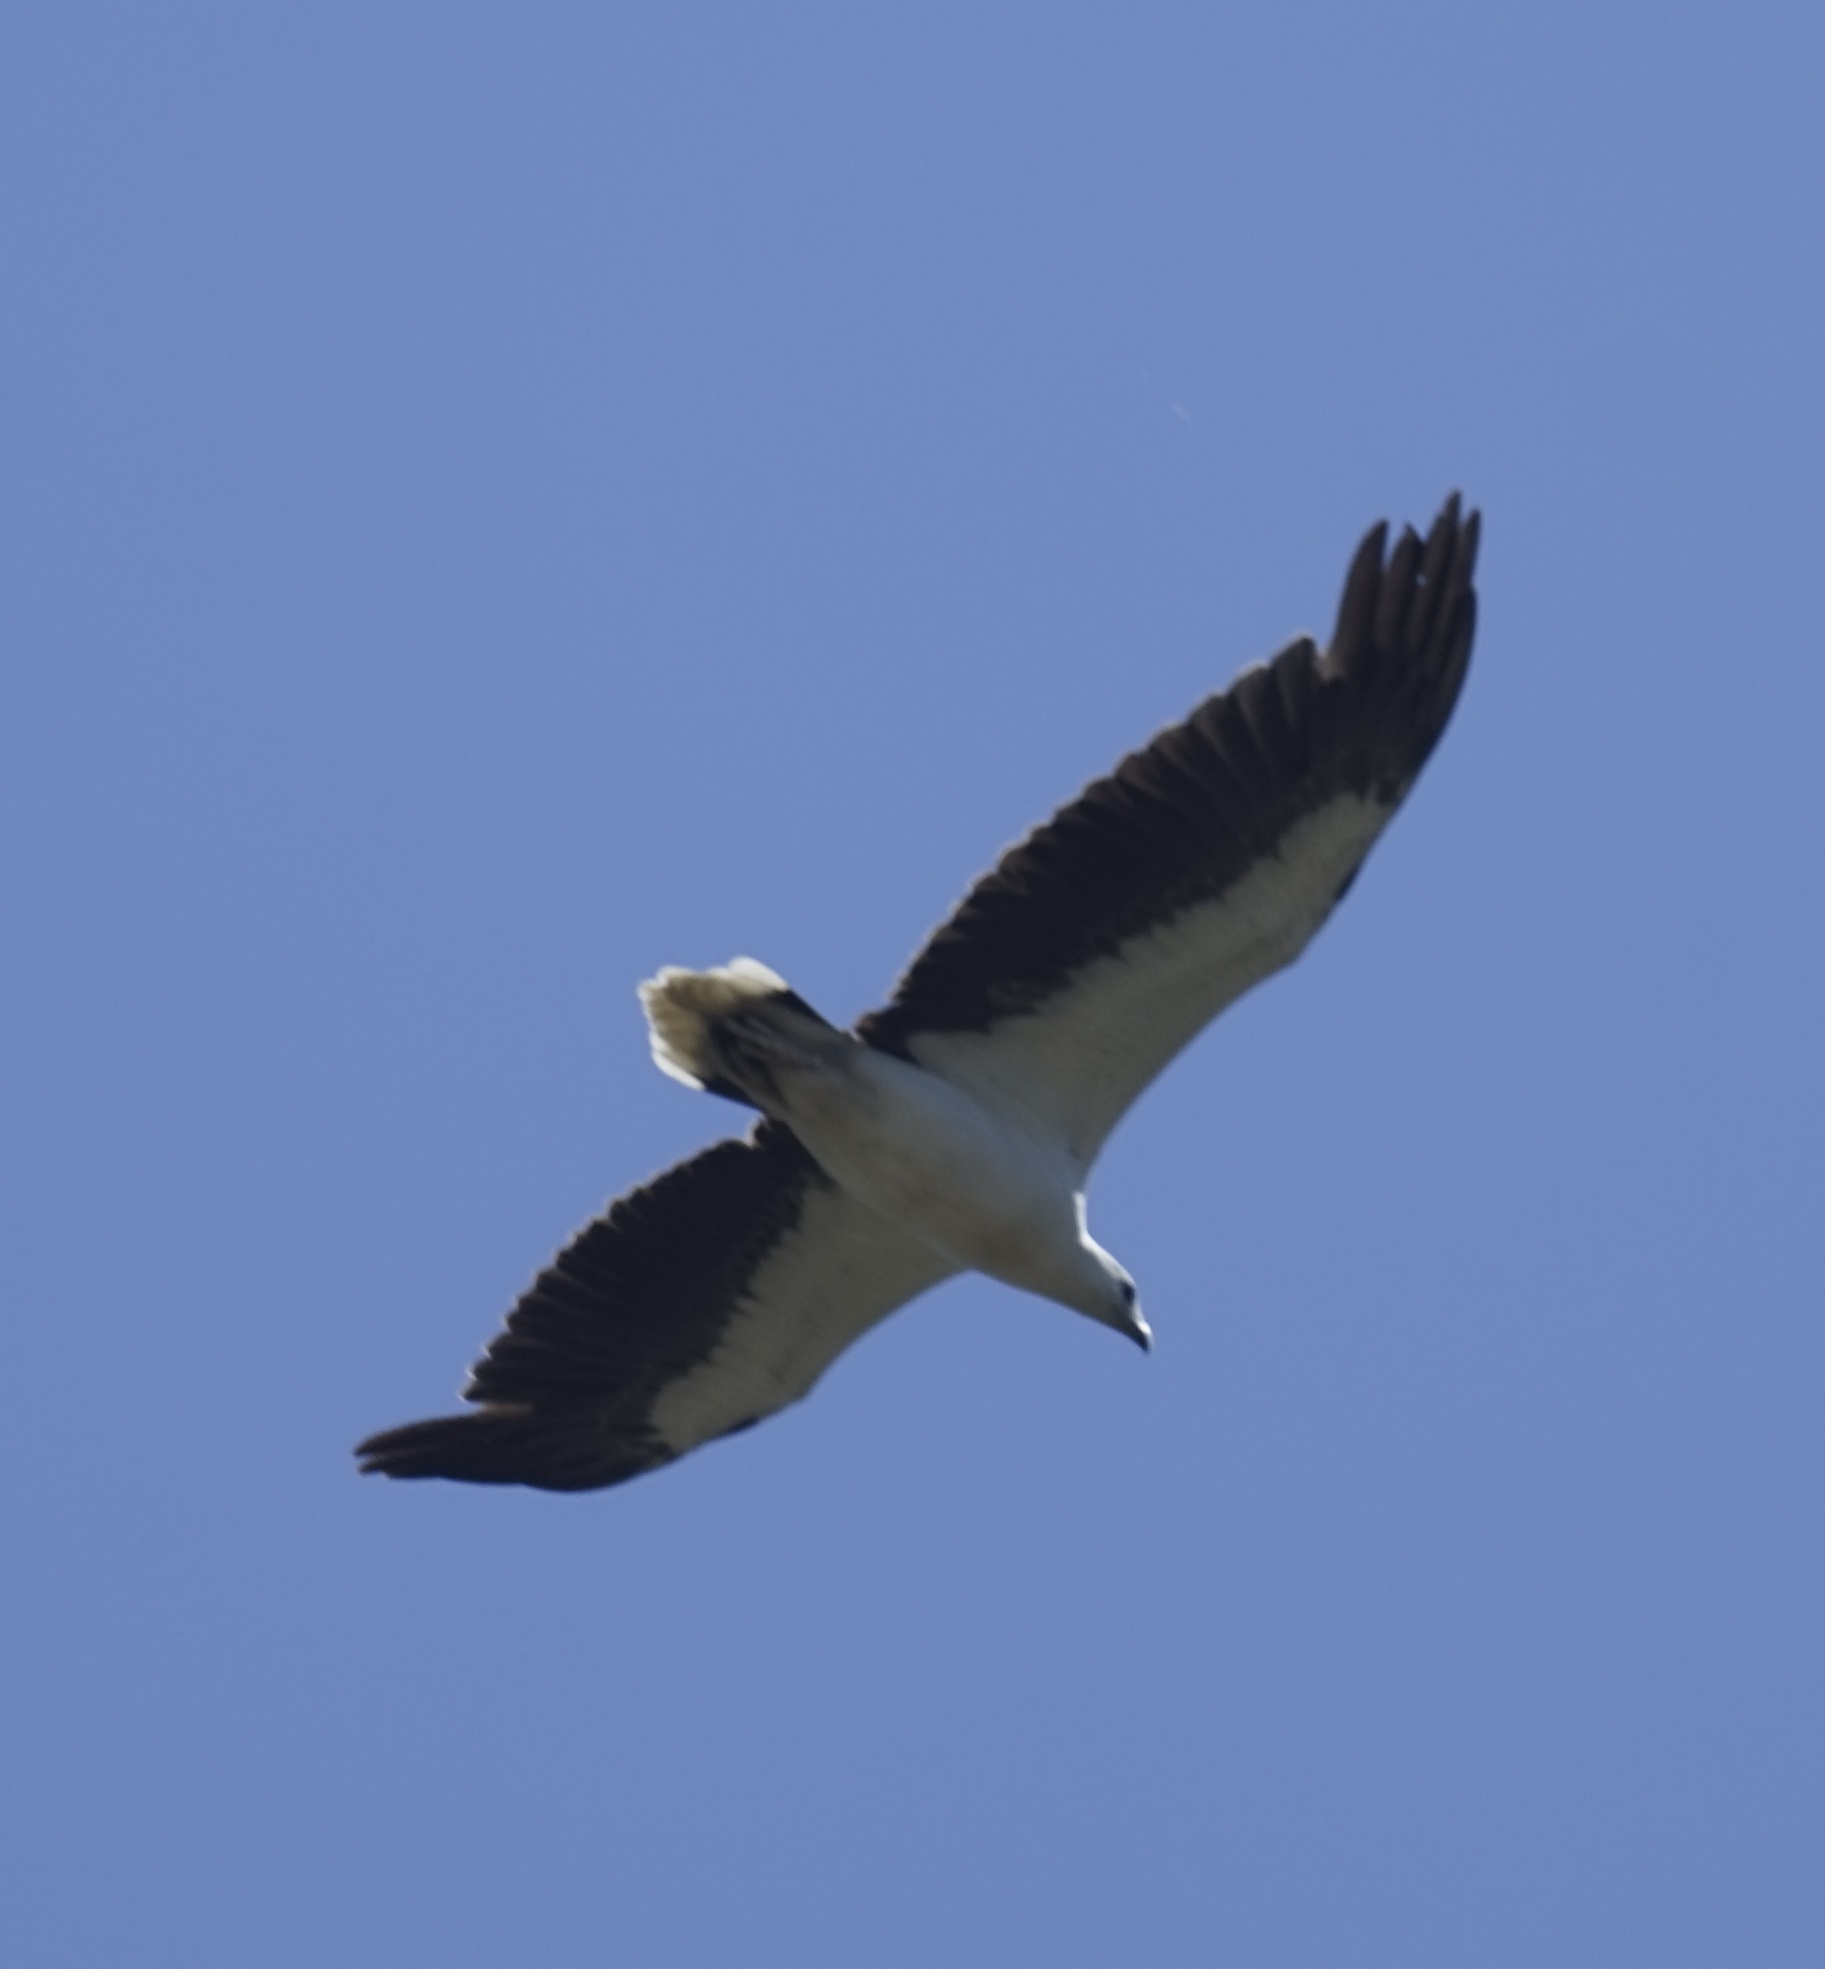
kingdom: Animalia
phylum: Chordata
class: Aves
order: Accipitriformes
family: Accipitridae
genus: Haliaeetus
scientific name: Haliaeetus leucogaster
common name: White-bellied sea eagle
